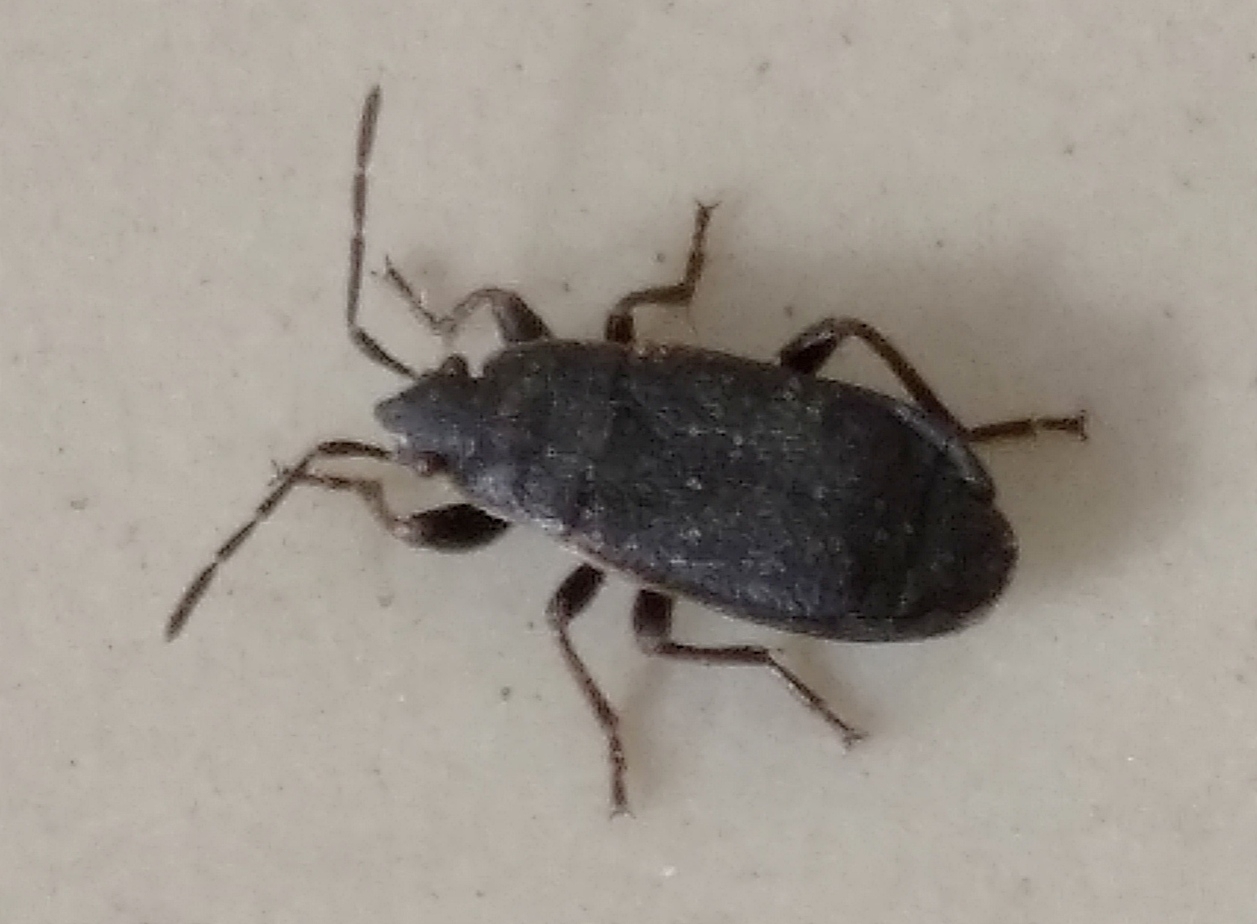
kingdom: Animalia
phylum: Arthropoda
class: Insecta
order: Hemiptera
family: Pyrrhocoridae
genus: Pyrrhocoris
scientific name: Pyrrhocoris marginatus
